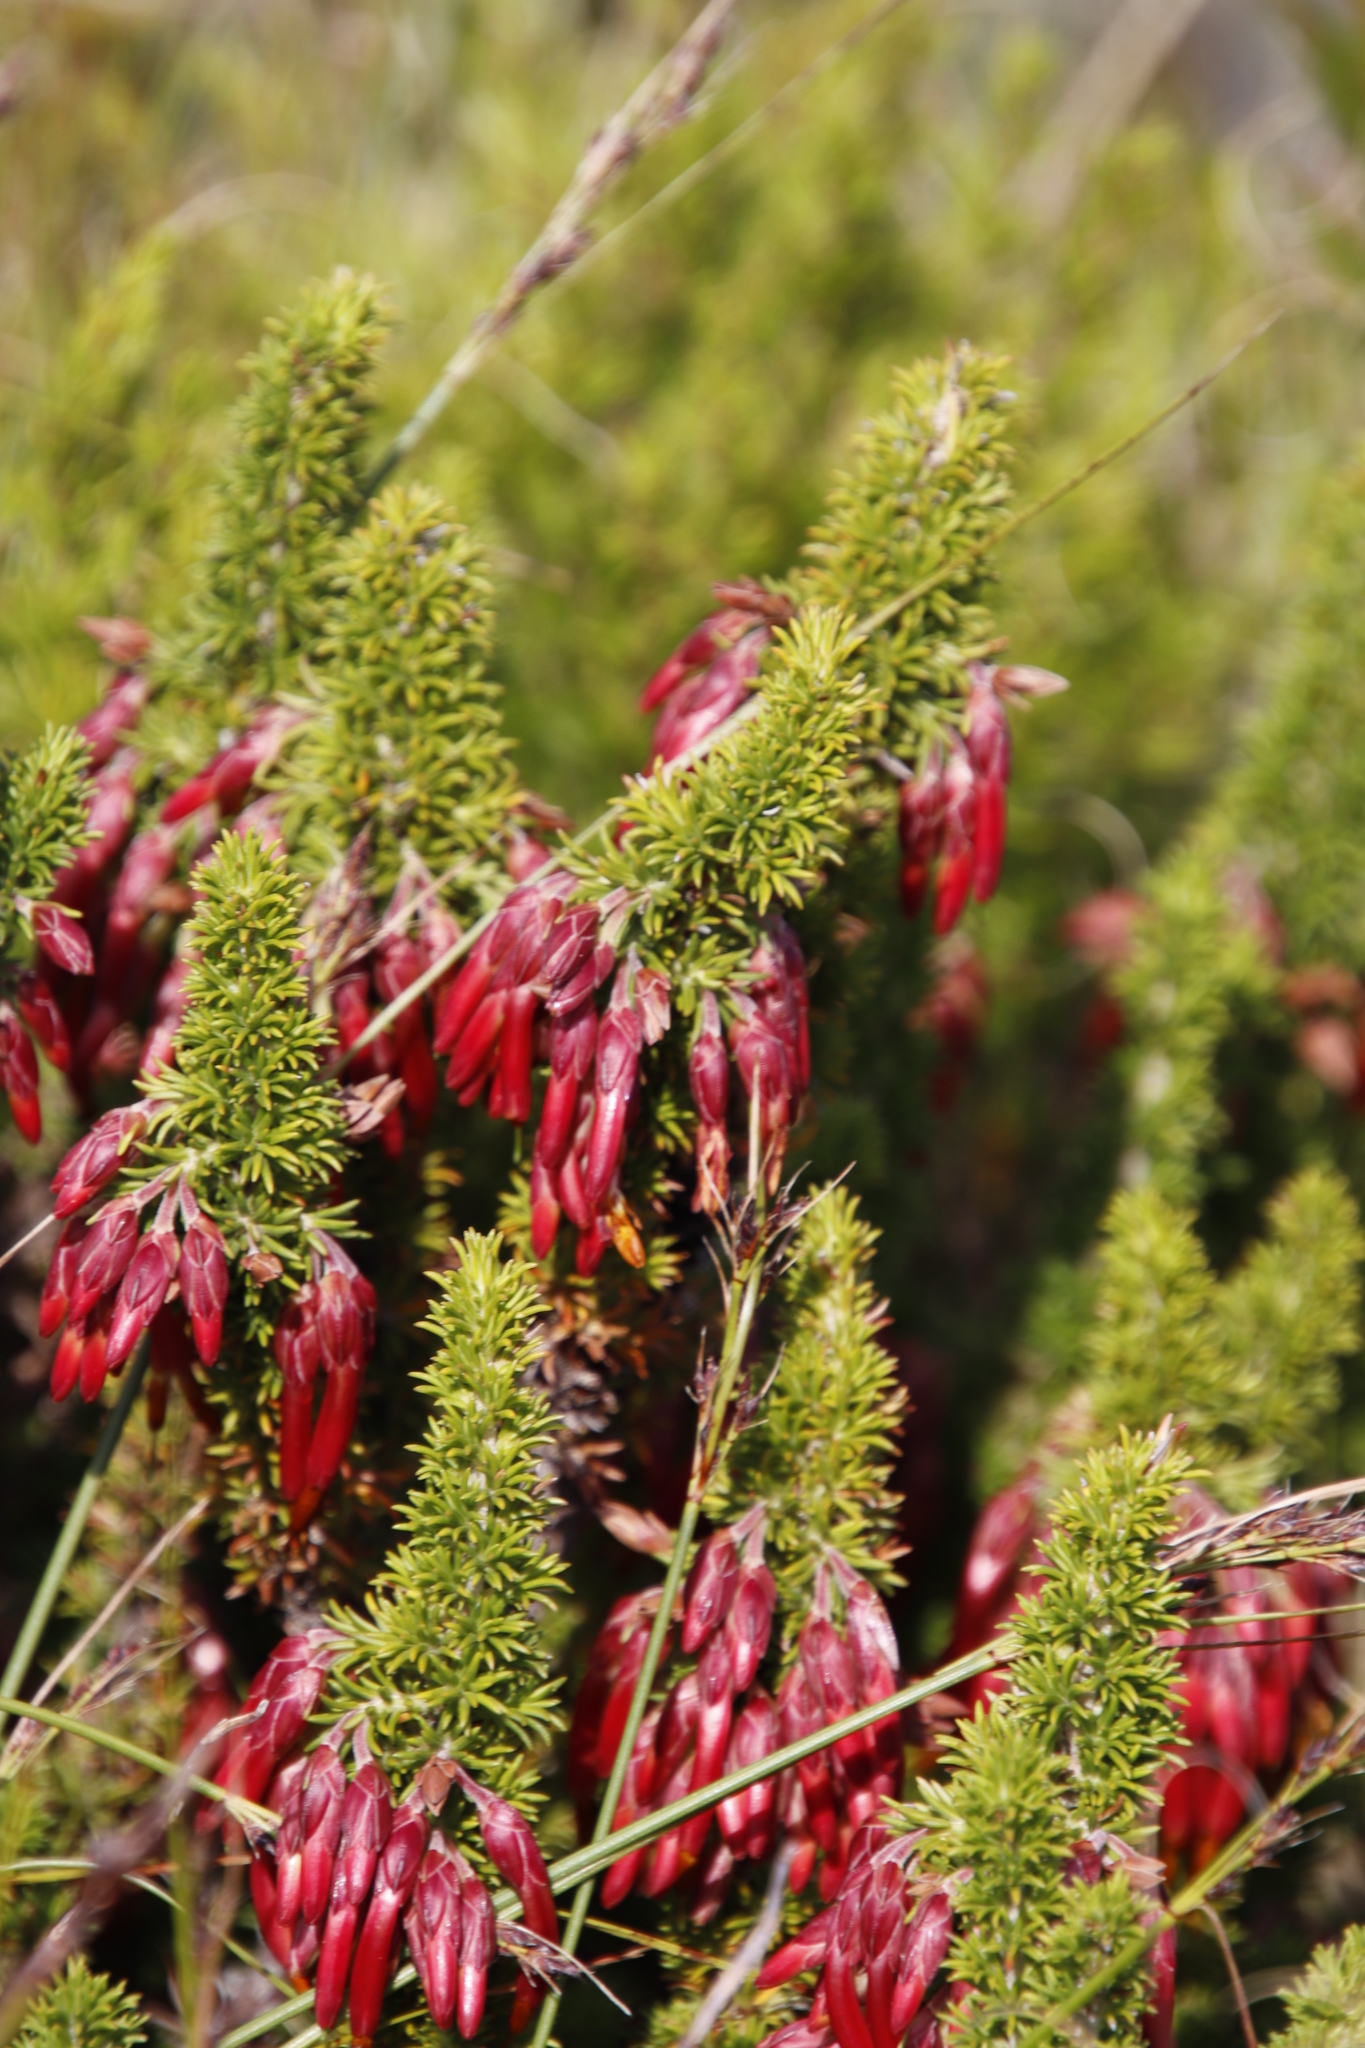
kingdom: Plantae
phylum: Tracheophyta
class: Magnoliopsida
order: Ericales
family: Ericaceae
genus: Erica
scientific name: Erica coccinea
